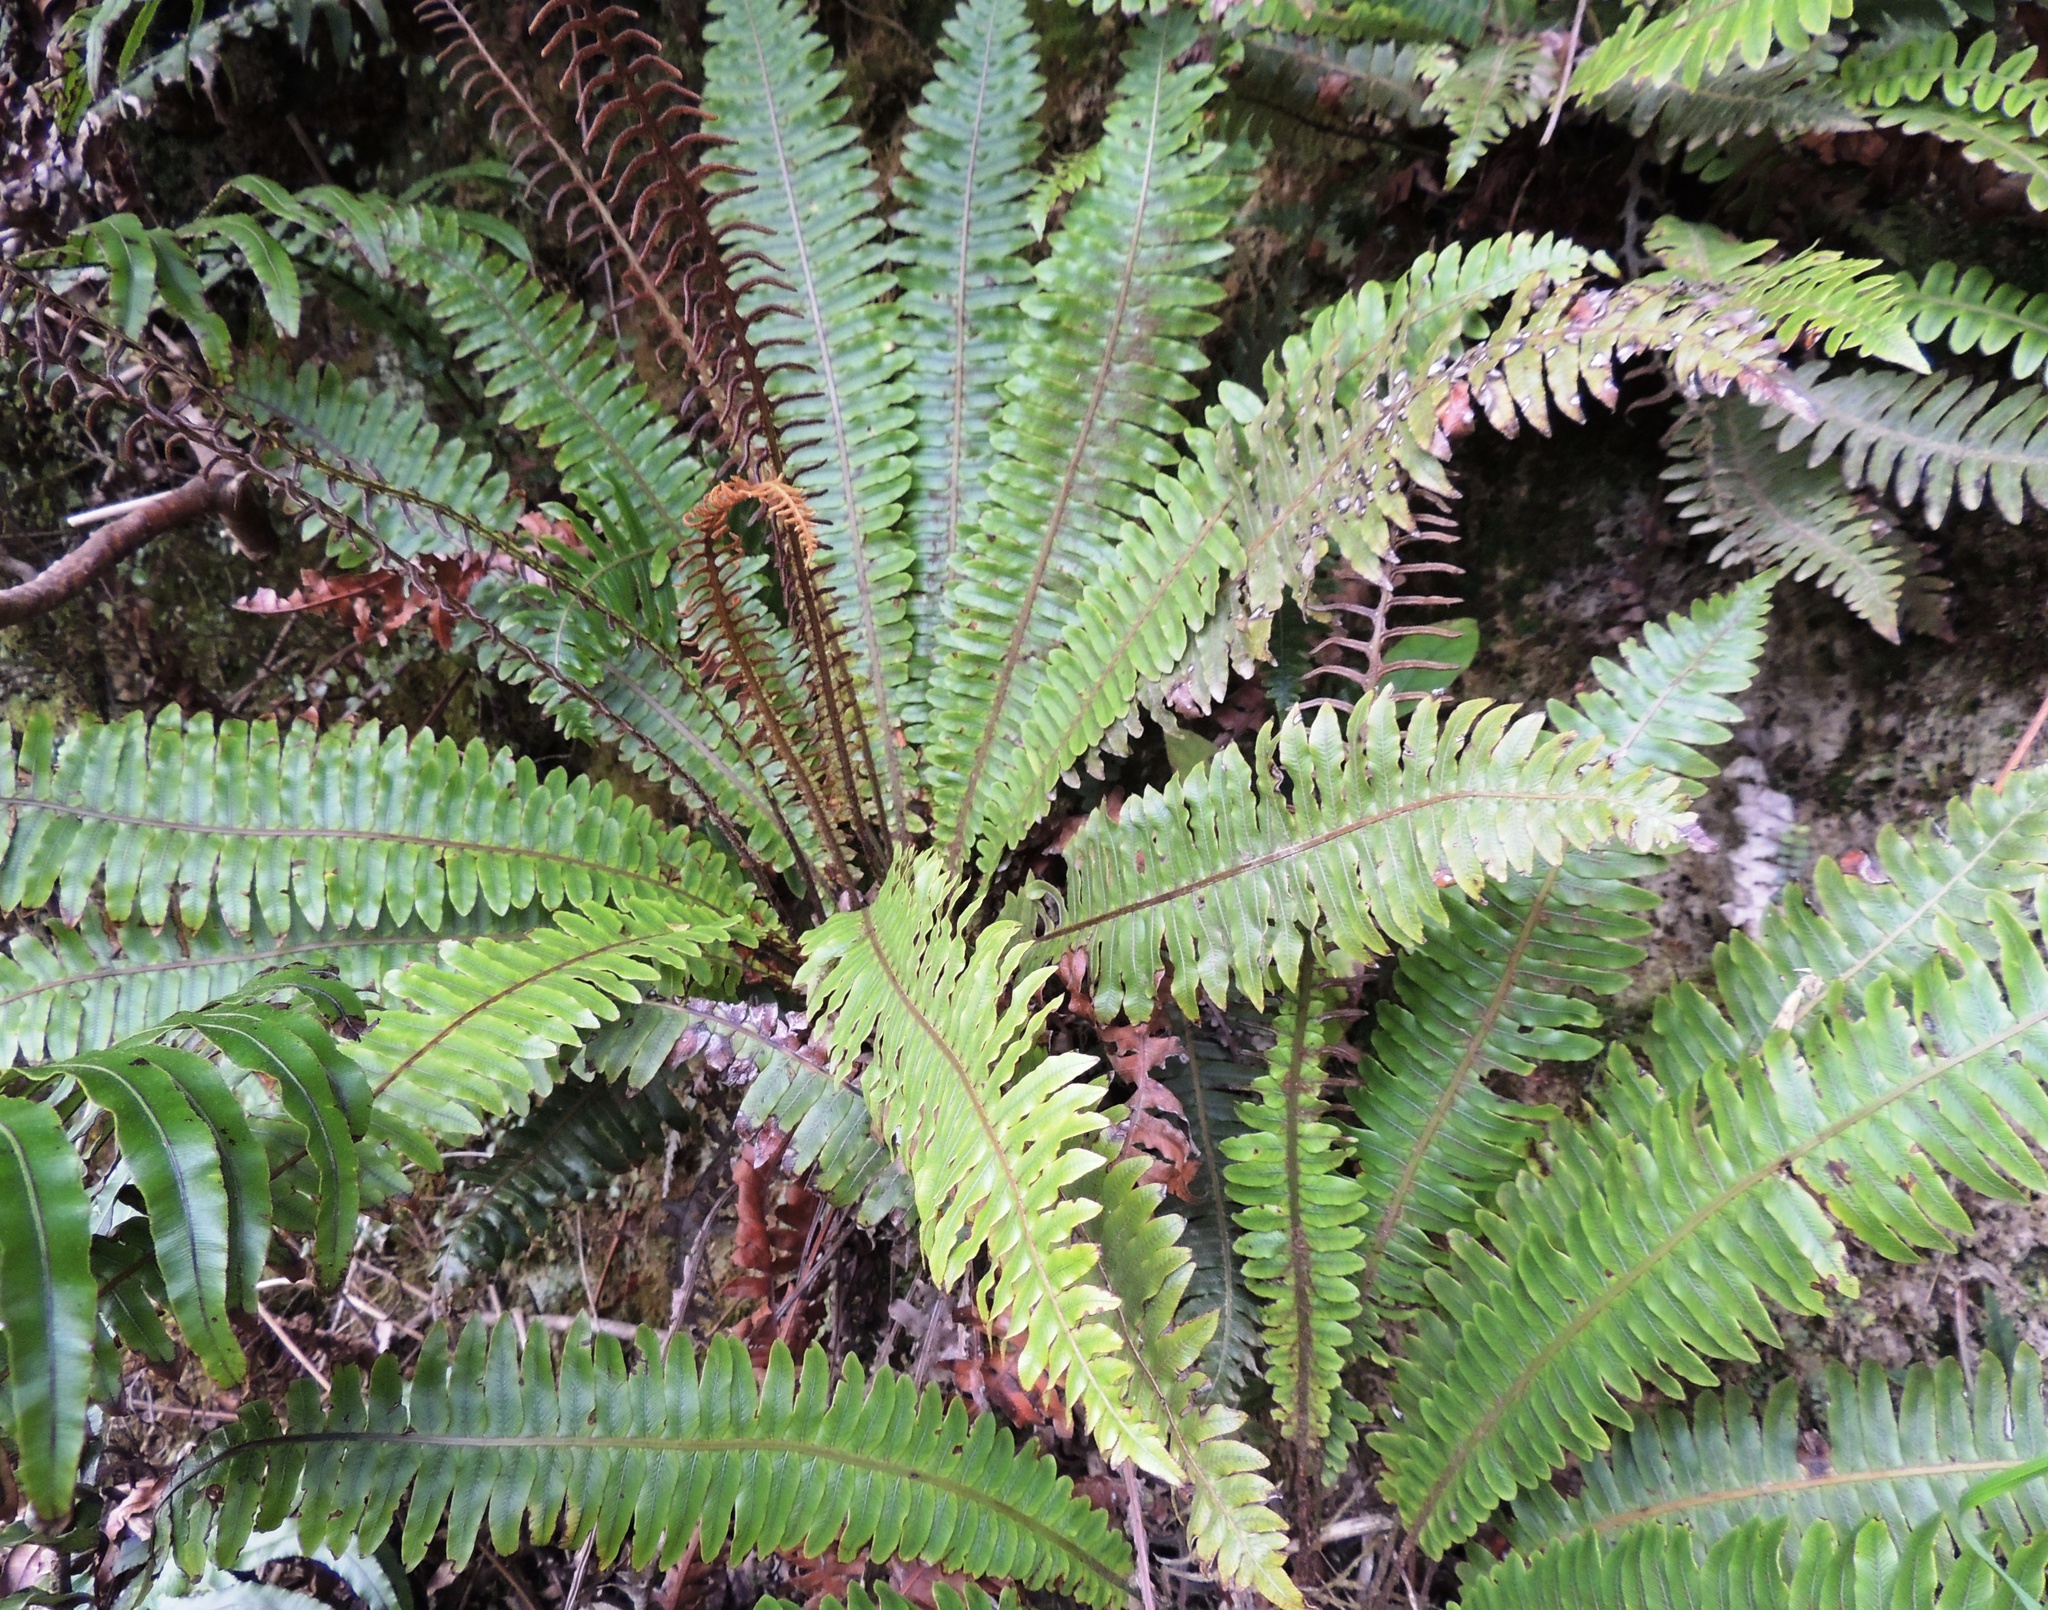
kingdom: Plantae
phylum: Tracheophyta
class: Polypodiopsida
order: Polypodiales
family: Blechnaceae
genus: Lomaria
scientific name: Lomaria discolor
